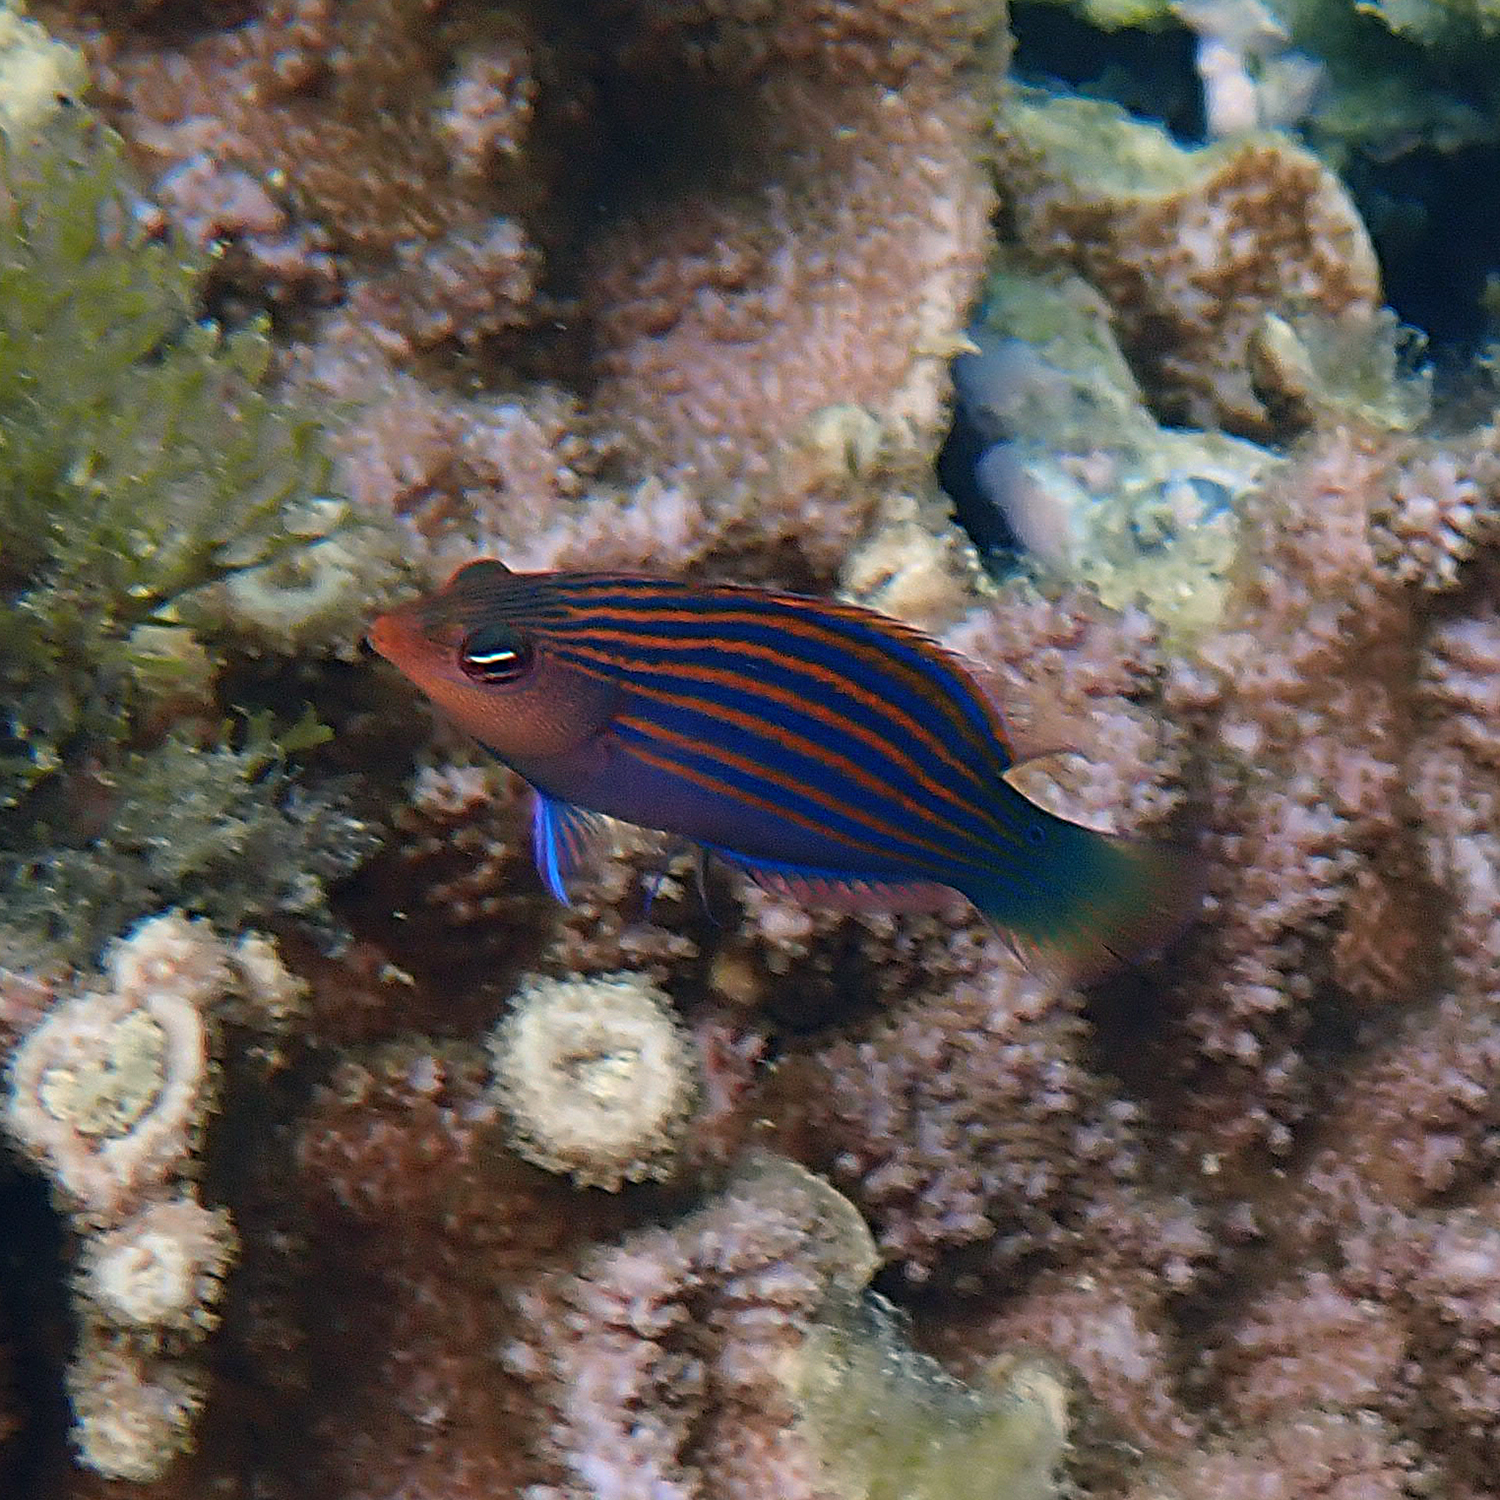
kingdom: Animalia
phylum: Chordata
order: Perciformes
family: Labridae
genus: Pseudocheilinus
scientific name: Pseudocheilinus hexataenia
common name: Sixline wrasse
